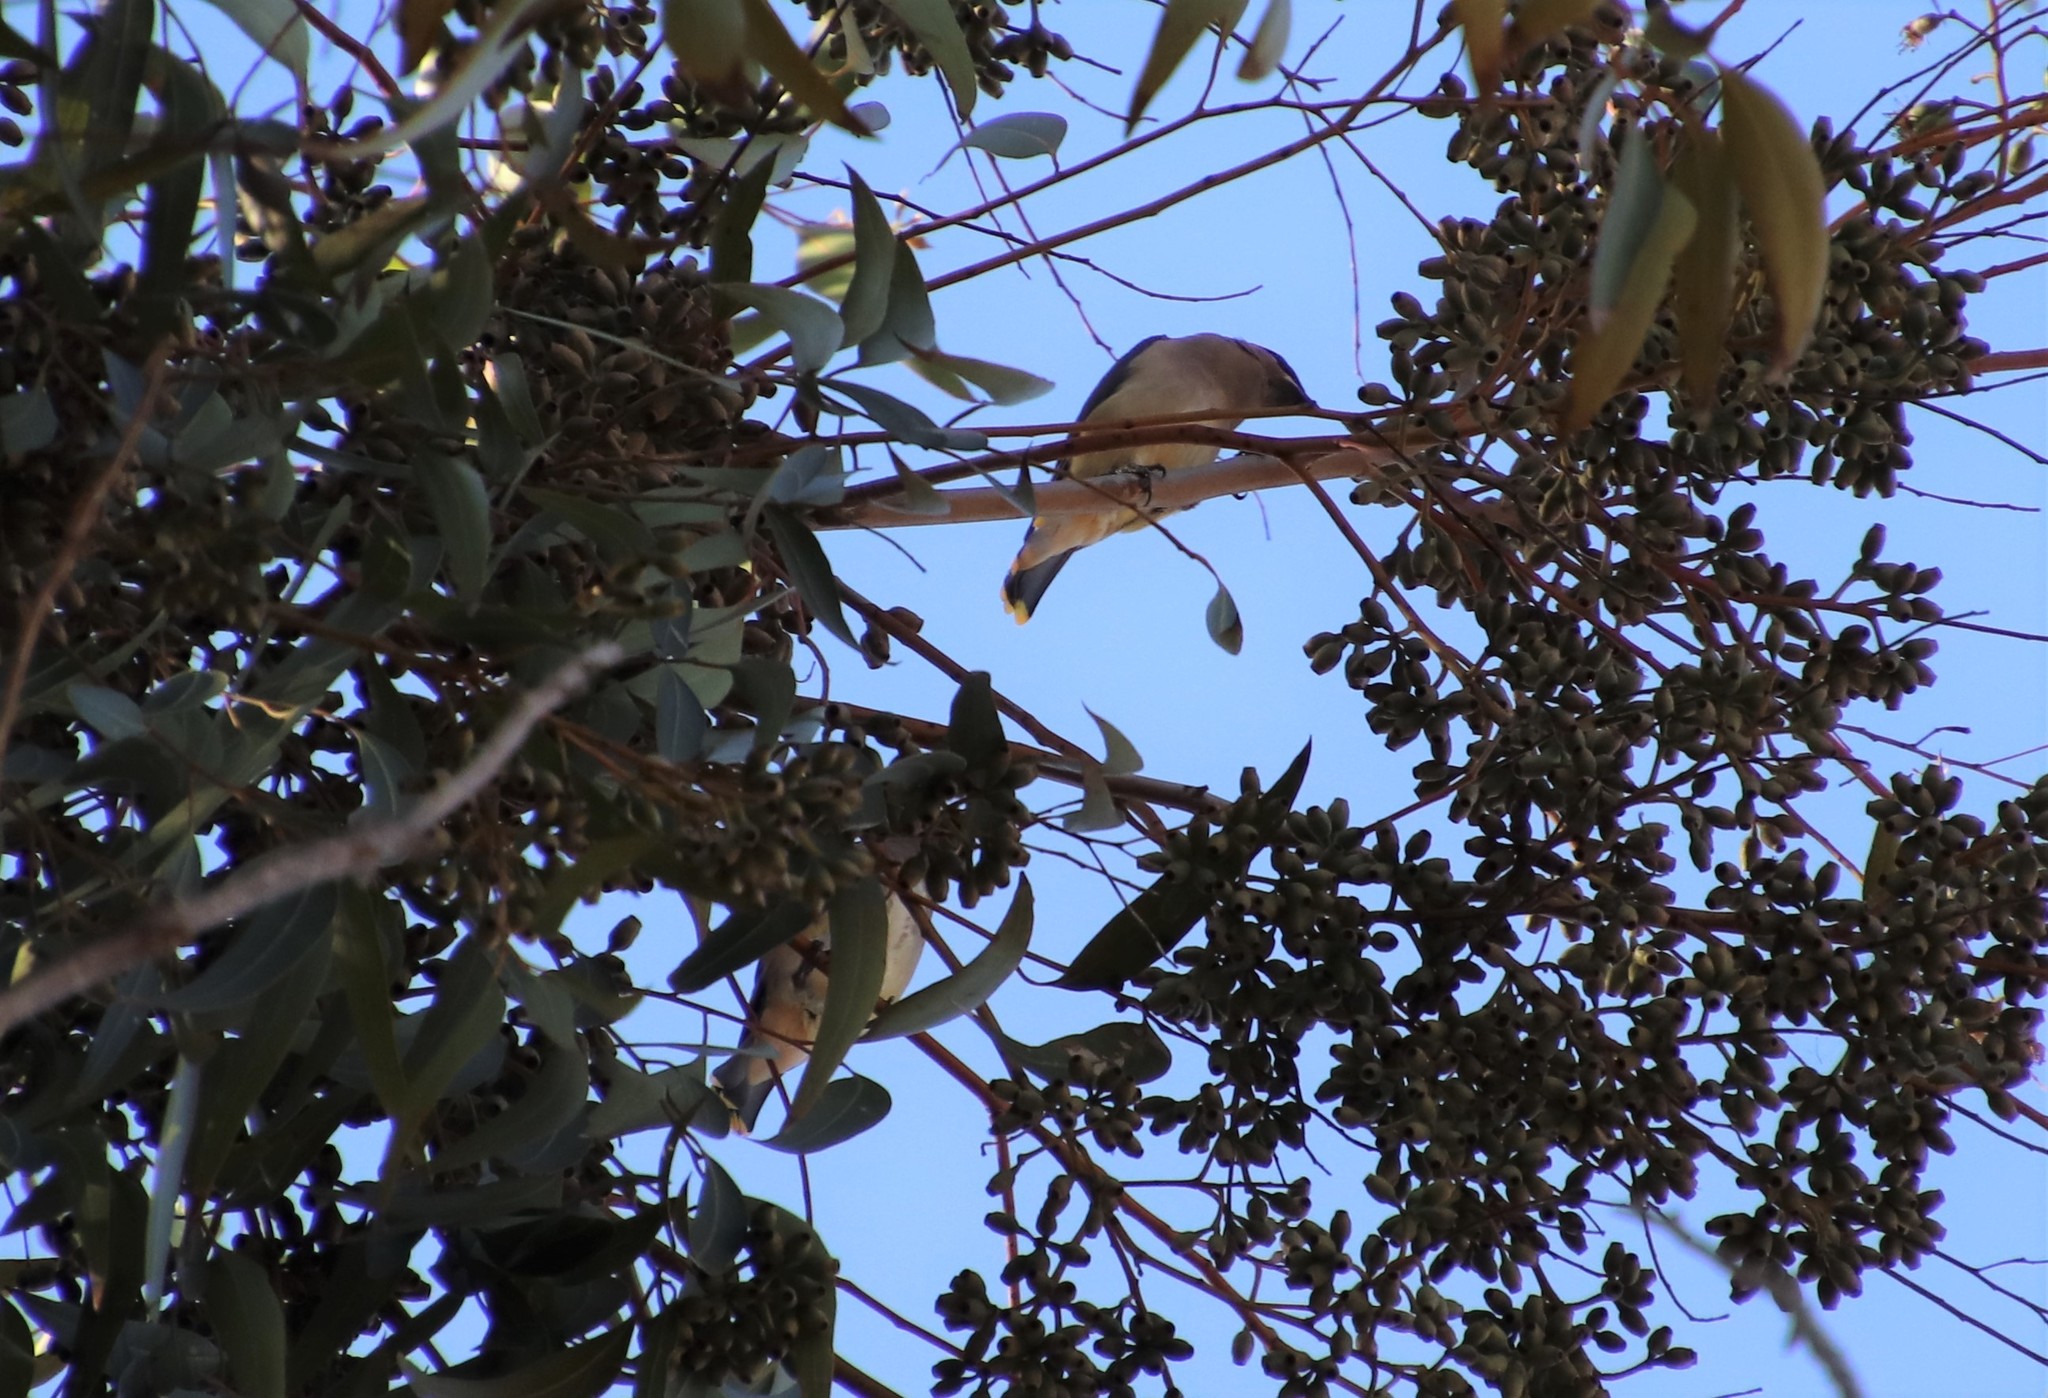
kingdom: Animalia
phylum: Chordata
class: Aves
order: Passeriformes
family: Bombycillidae
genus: Bombycilla
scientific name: Bombycilla cedrorum
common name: Cedar waxwing
